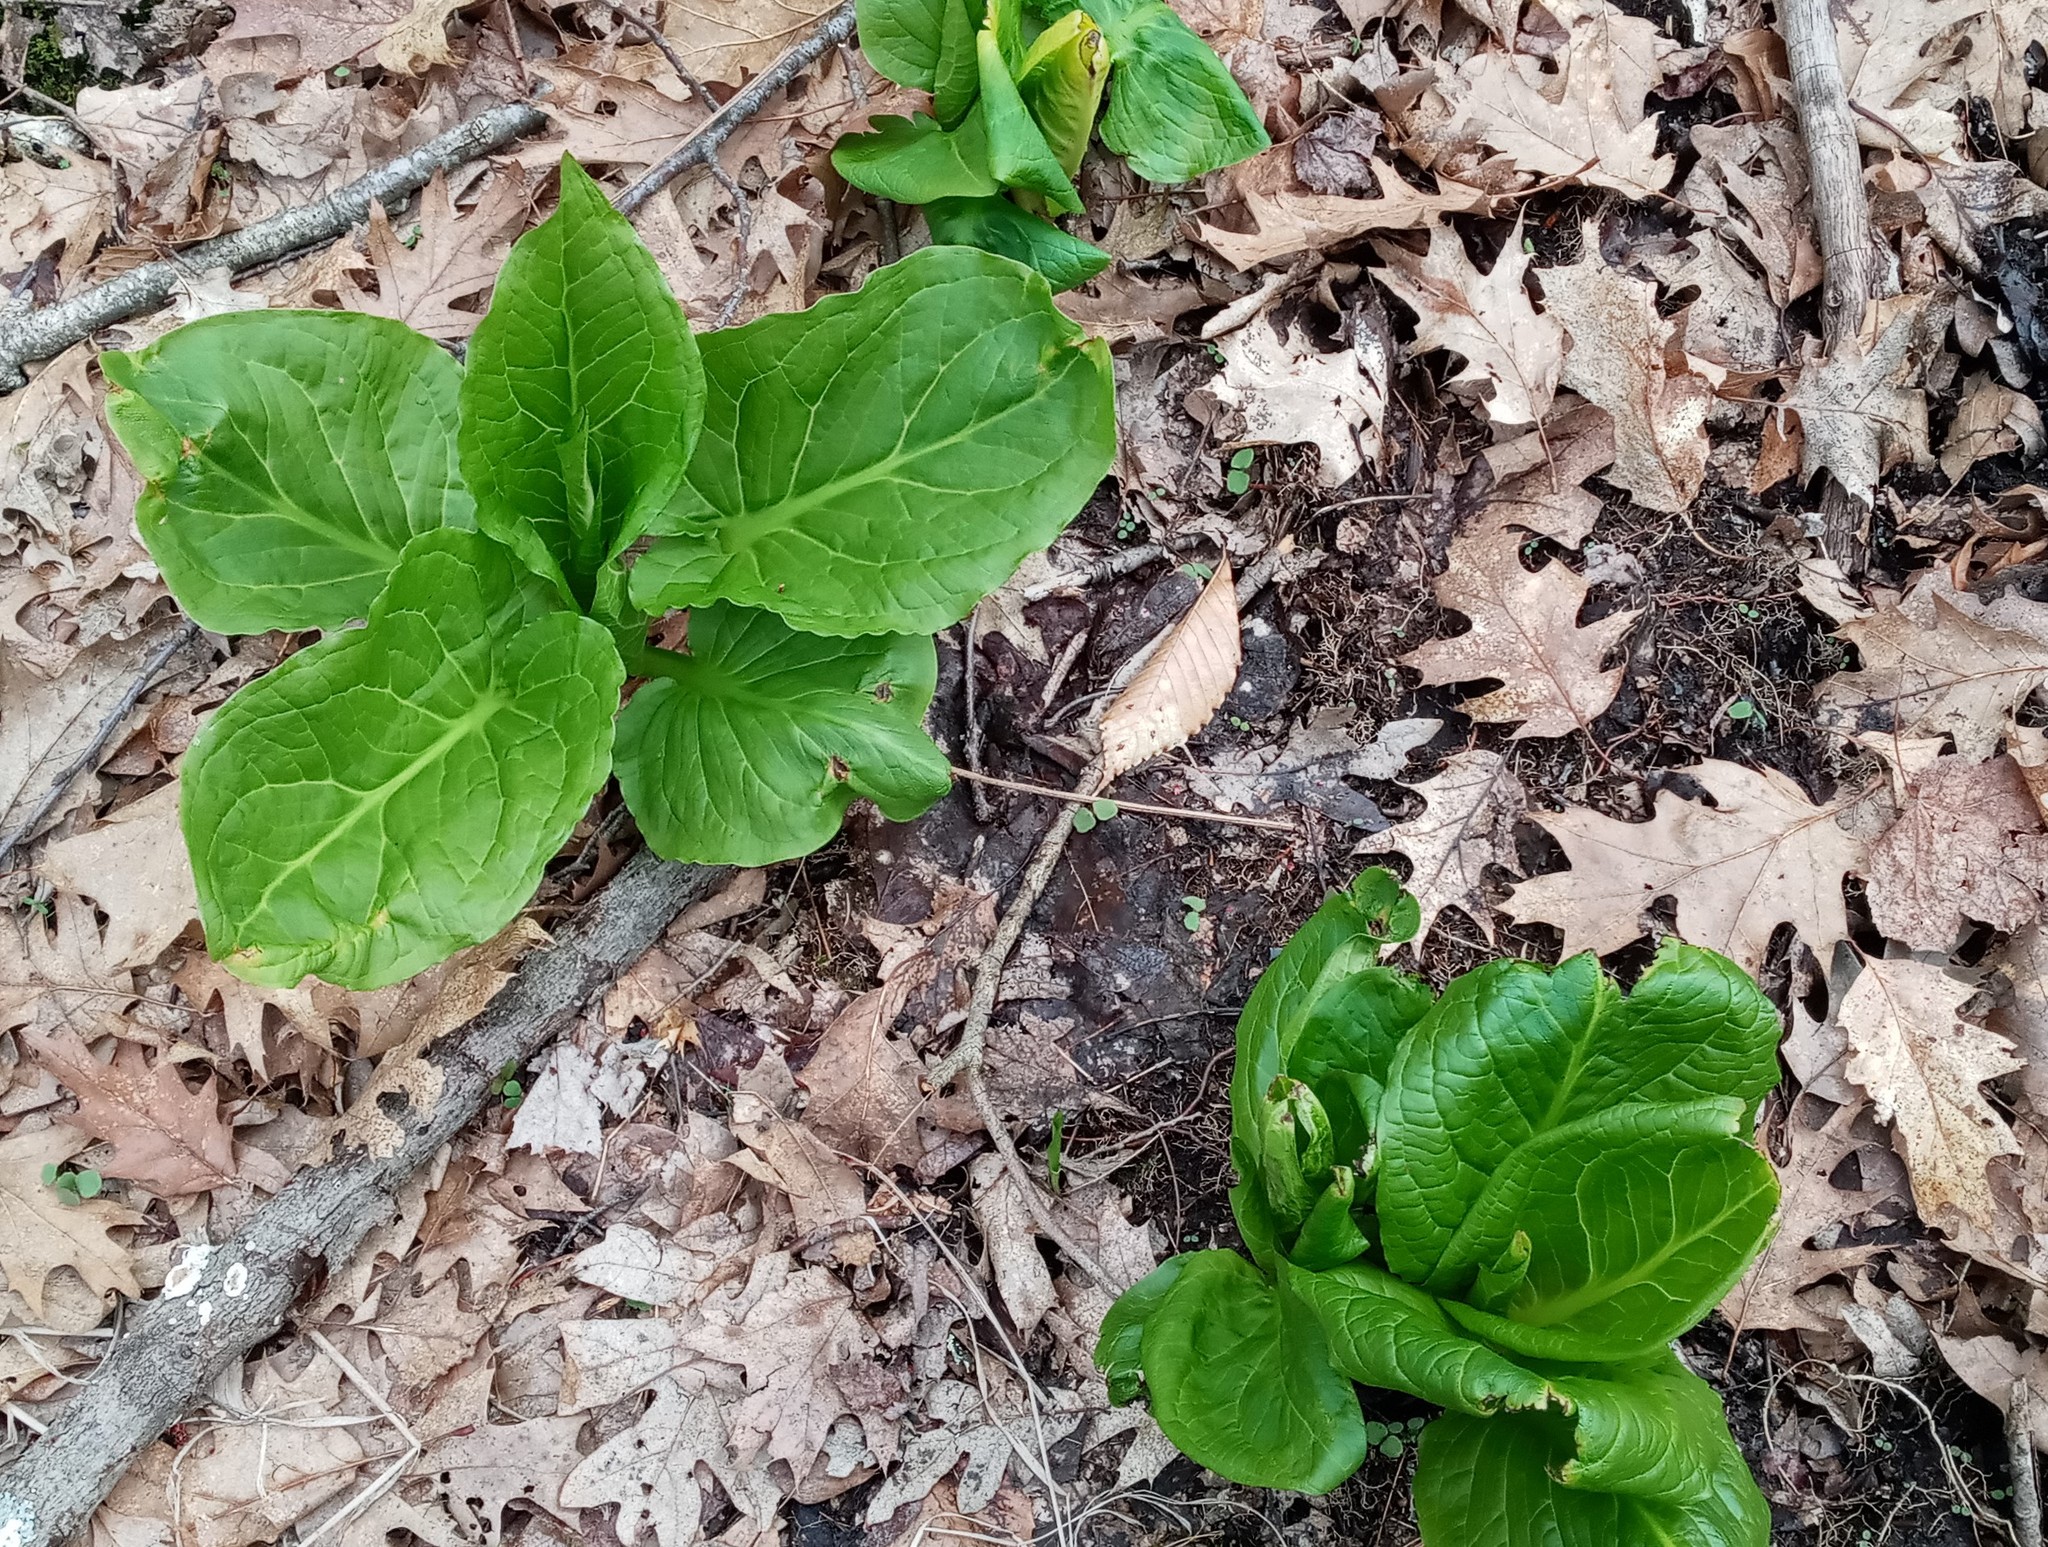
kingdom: Plantae
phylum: Tracheophyta
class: Liliopsida
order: Alismatales
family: Araceae
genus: Symplocarpus
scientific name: Symplocarpus foetidus
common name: Eastern skunk cabbage
